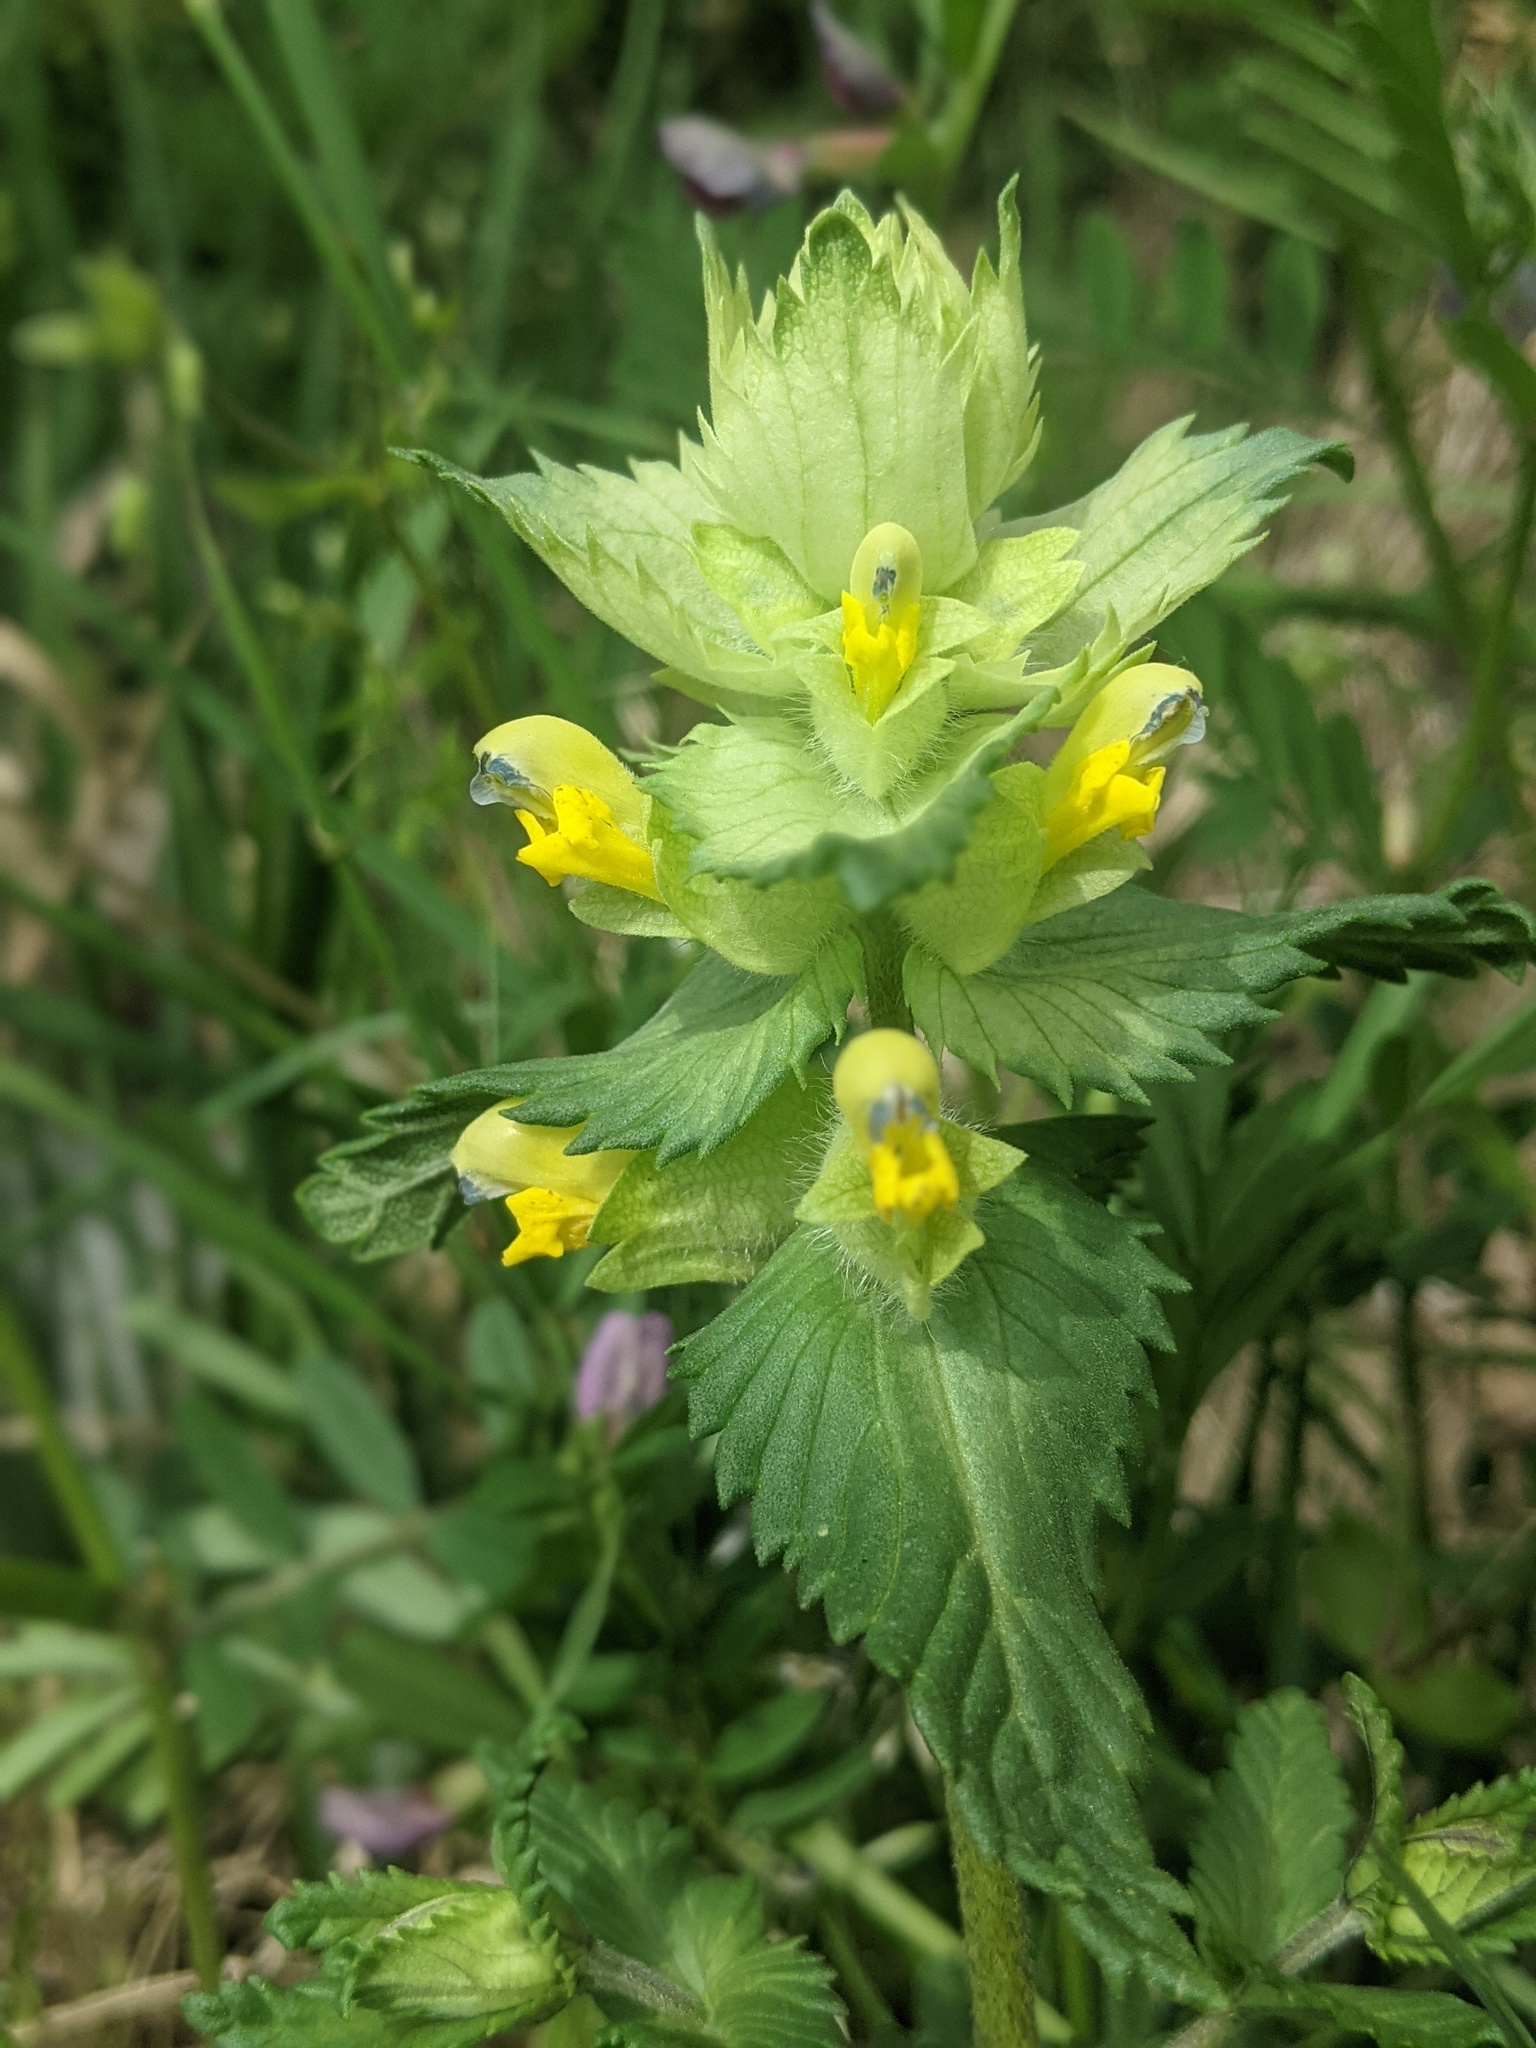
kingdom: Plantae
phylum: Tracheophyta
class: Magnoliopsida
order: Lamiales
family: Orobanchaceae
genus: Rhinanthus
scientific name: Rhinanthus alectorolophus
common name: Greater yellow-rattle
